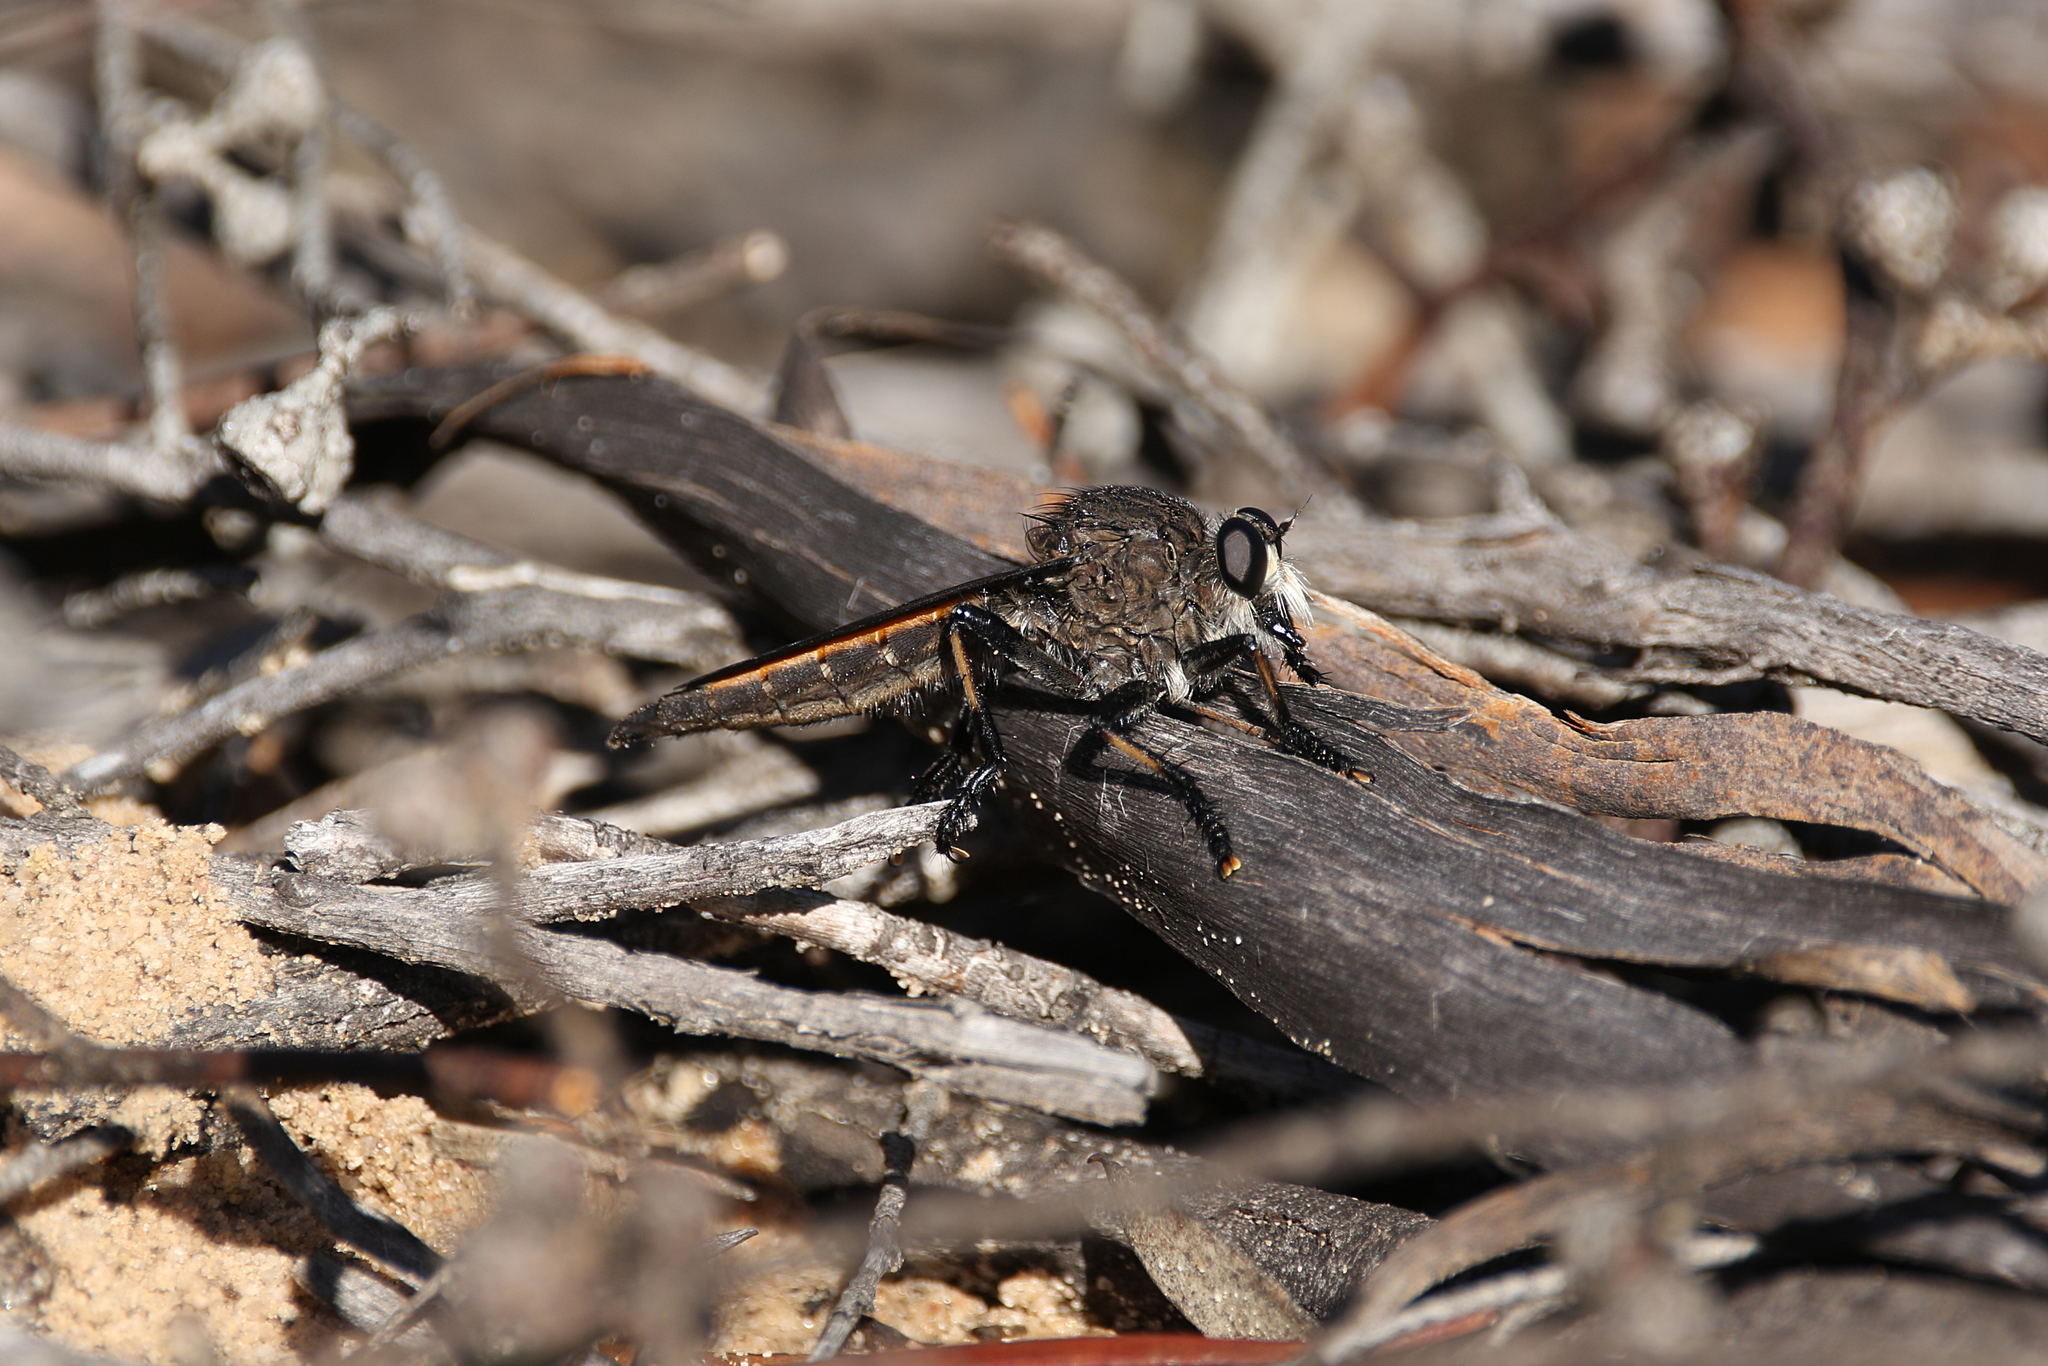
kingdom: Animalia
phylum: Arthropoda
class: Insecta
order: Diptera
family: Asilidae
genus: Mauropteron
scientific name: Mauropteron pelago
